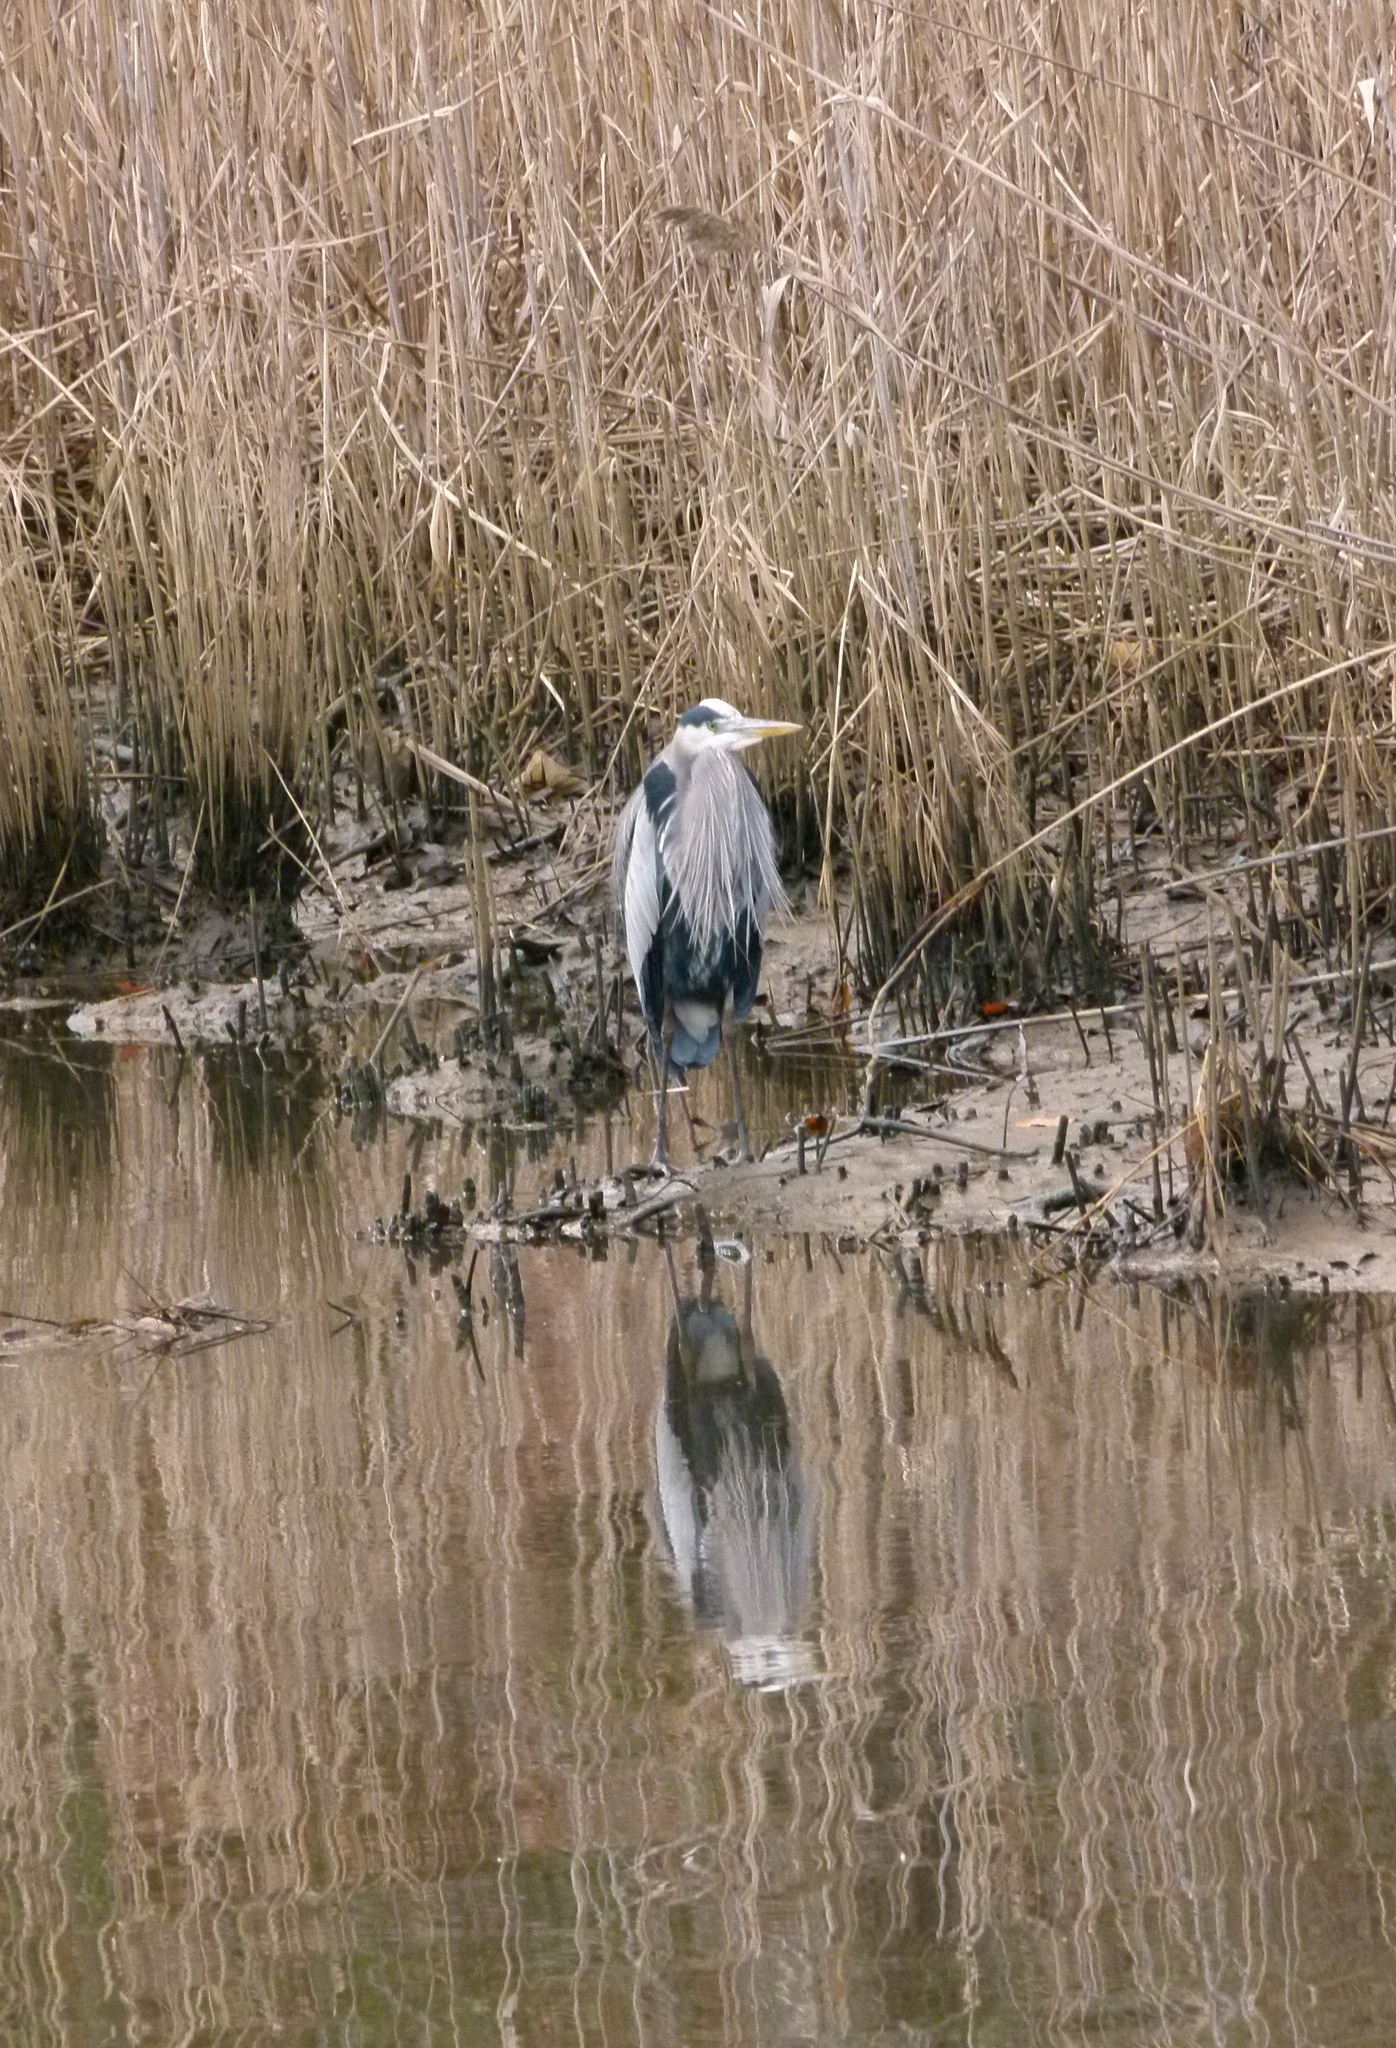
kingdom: Animalia
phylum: Chordata
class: Aves
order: Pelecaniformes
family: Ardeidae
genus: Ardea
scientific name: Ardea herodias
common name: Great blue heron
